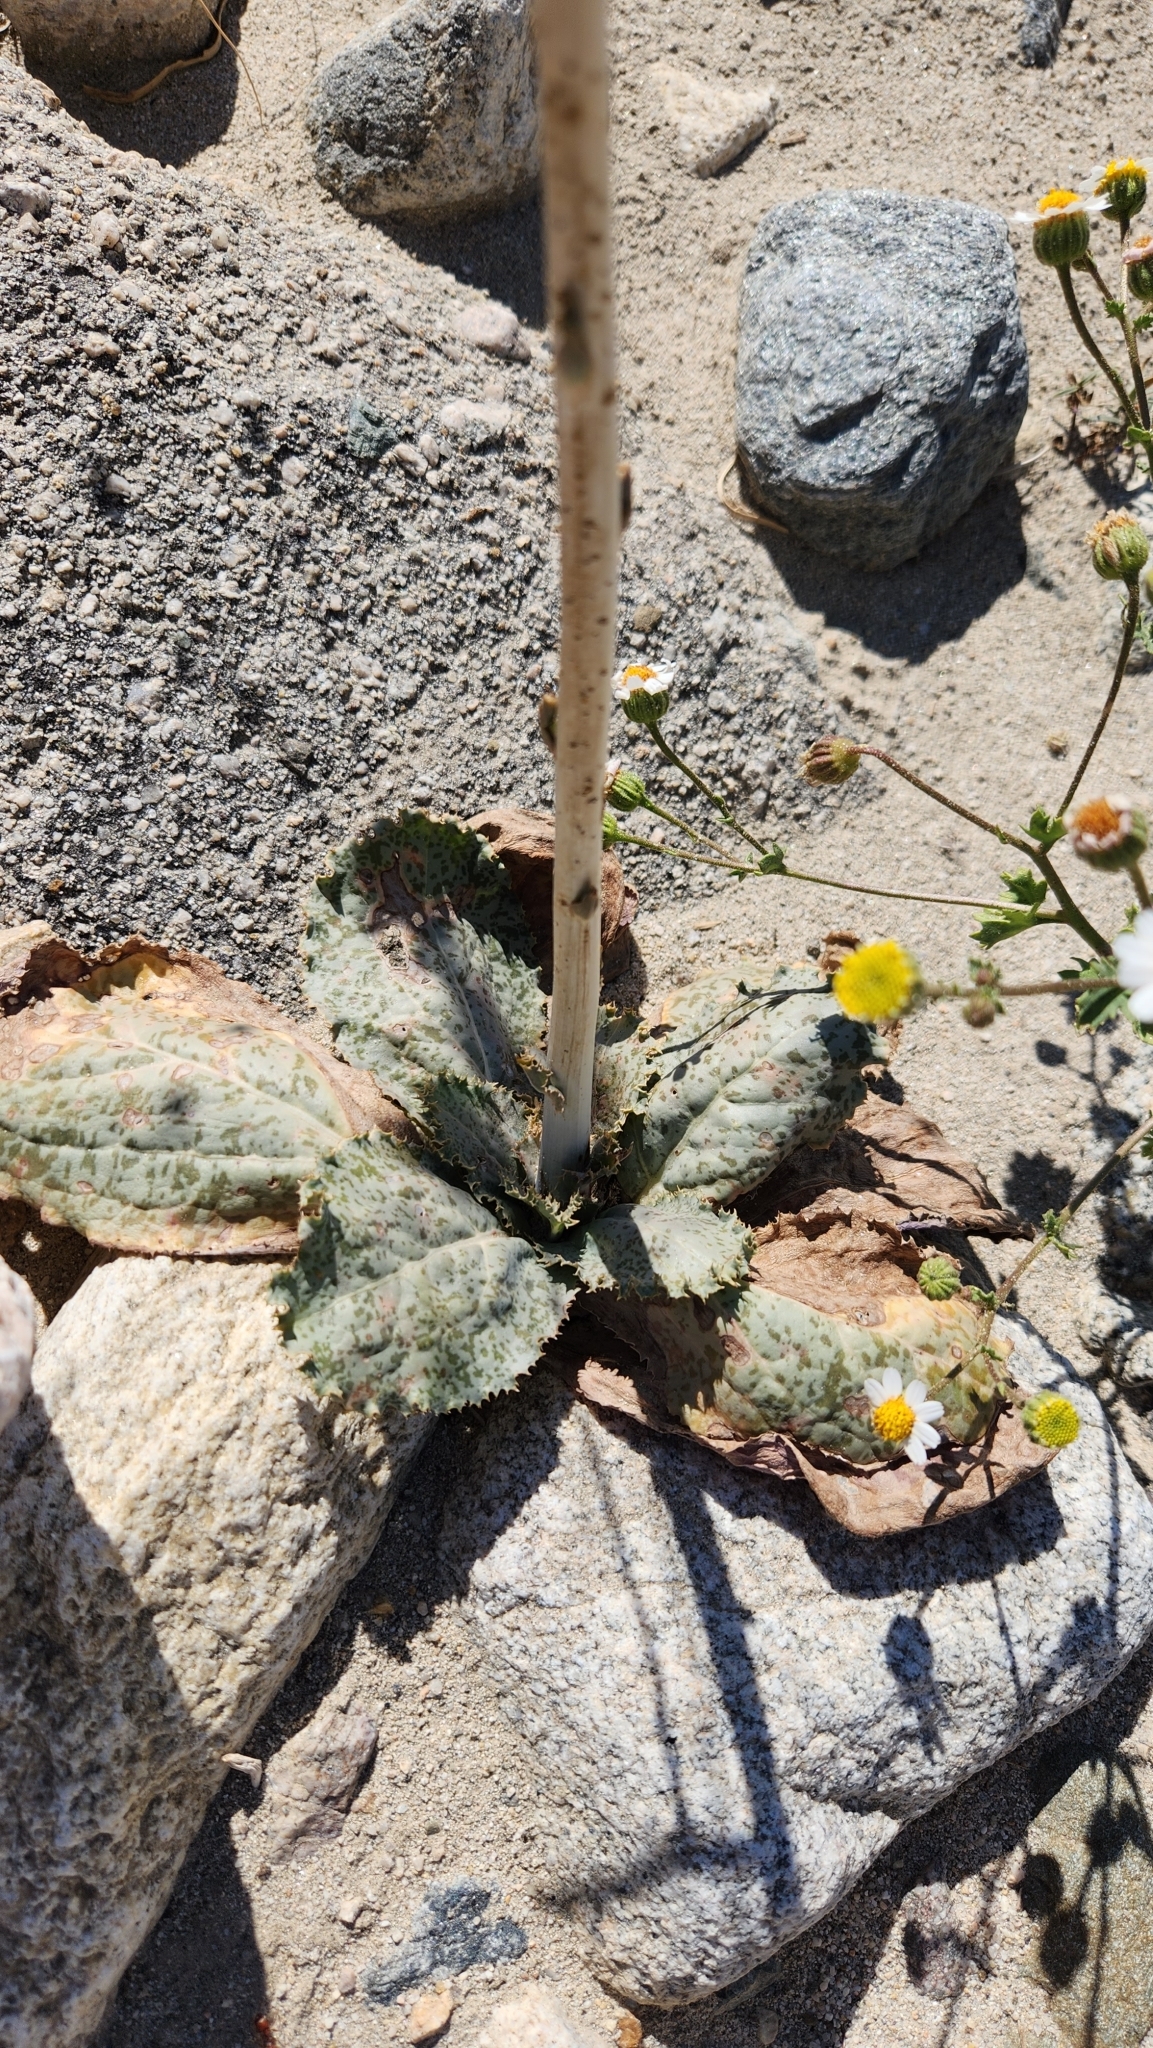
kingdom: Plantae
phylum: Tracheophyta
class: Magnoliopsida
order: Asterales
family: Asteraceae
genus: Atrichoseris
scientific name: Atrichoseris platyphylla
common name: Tobaccoweed
